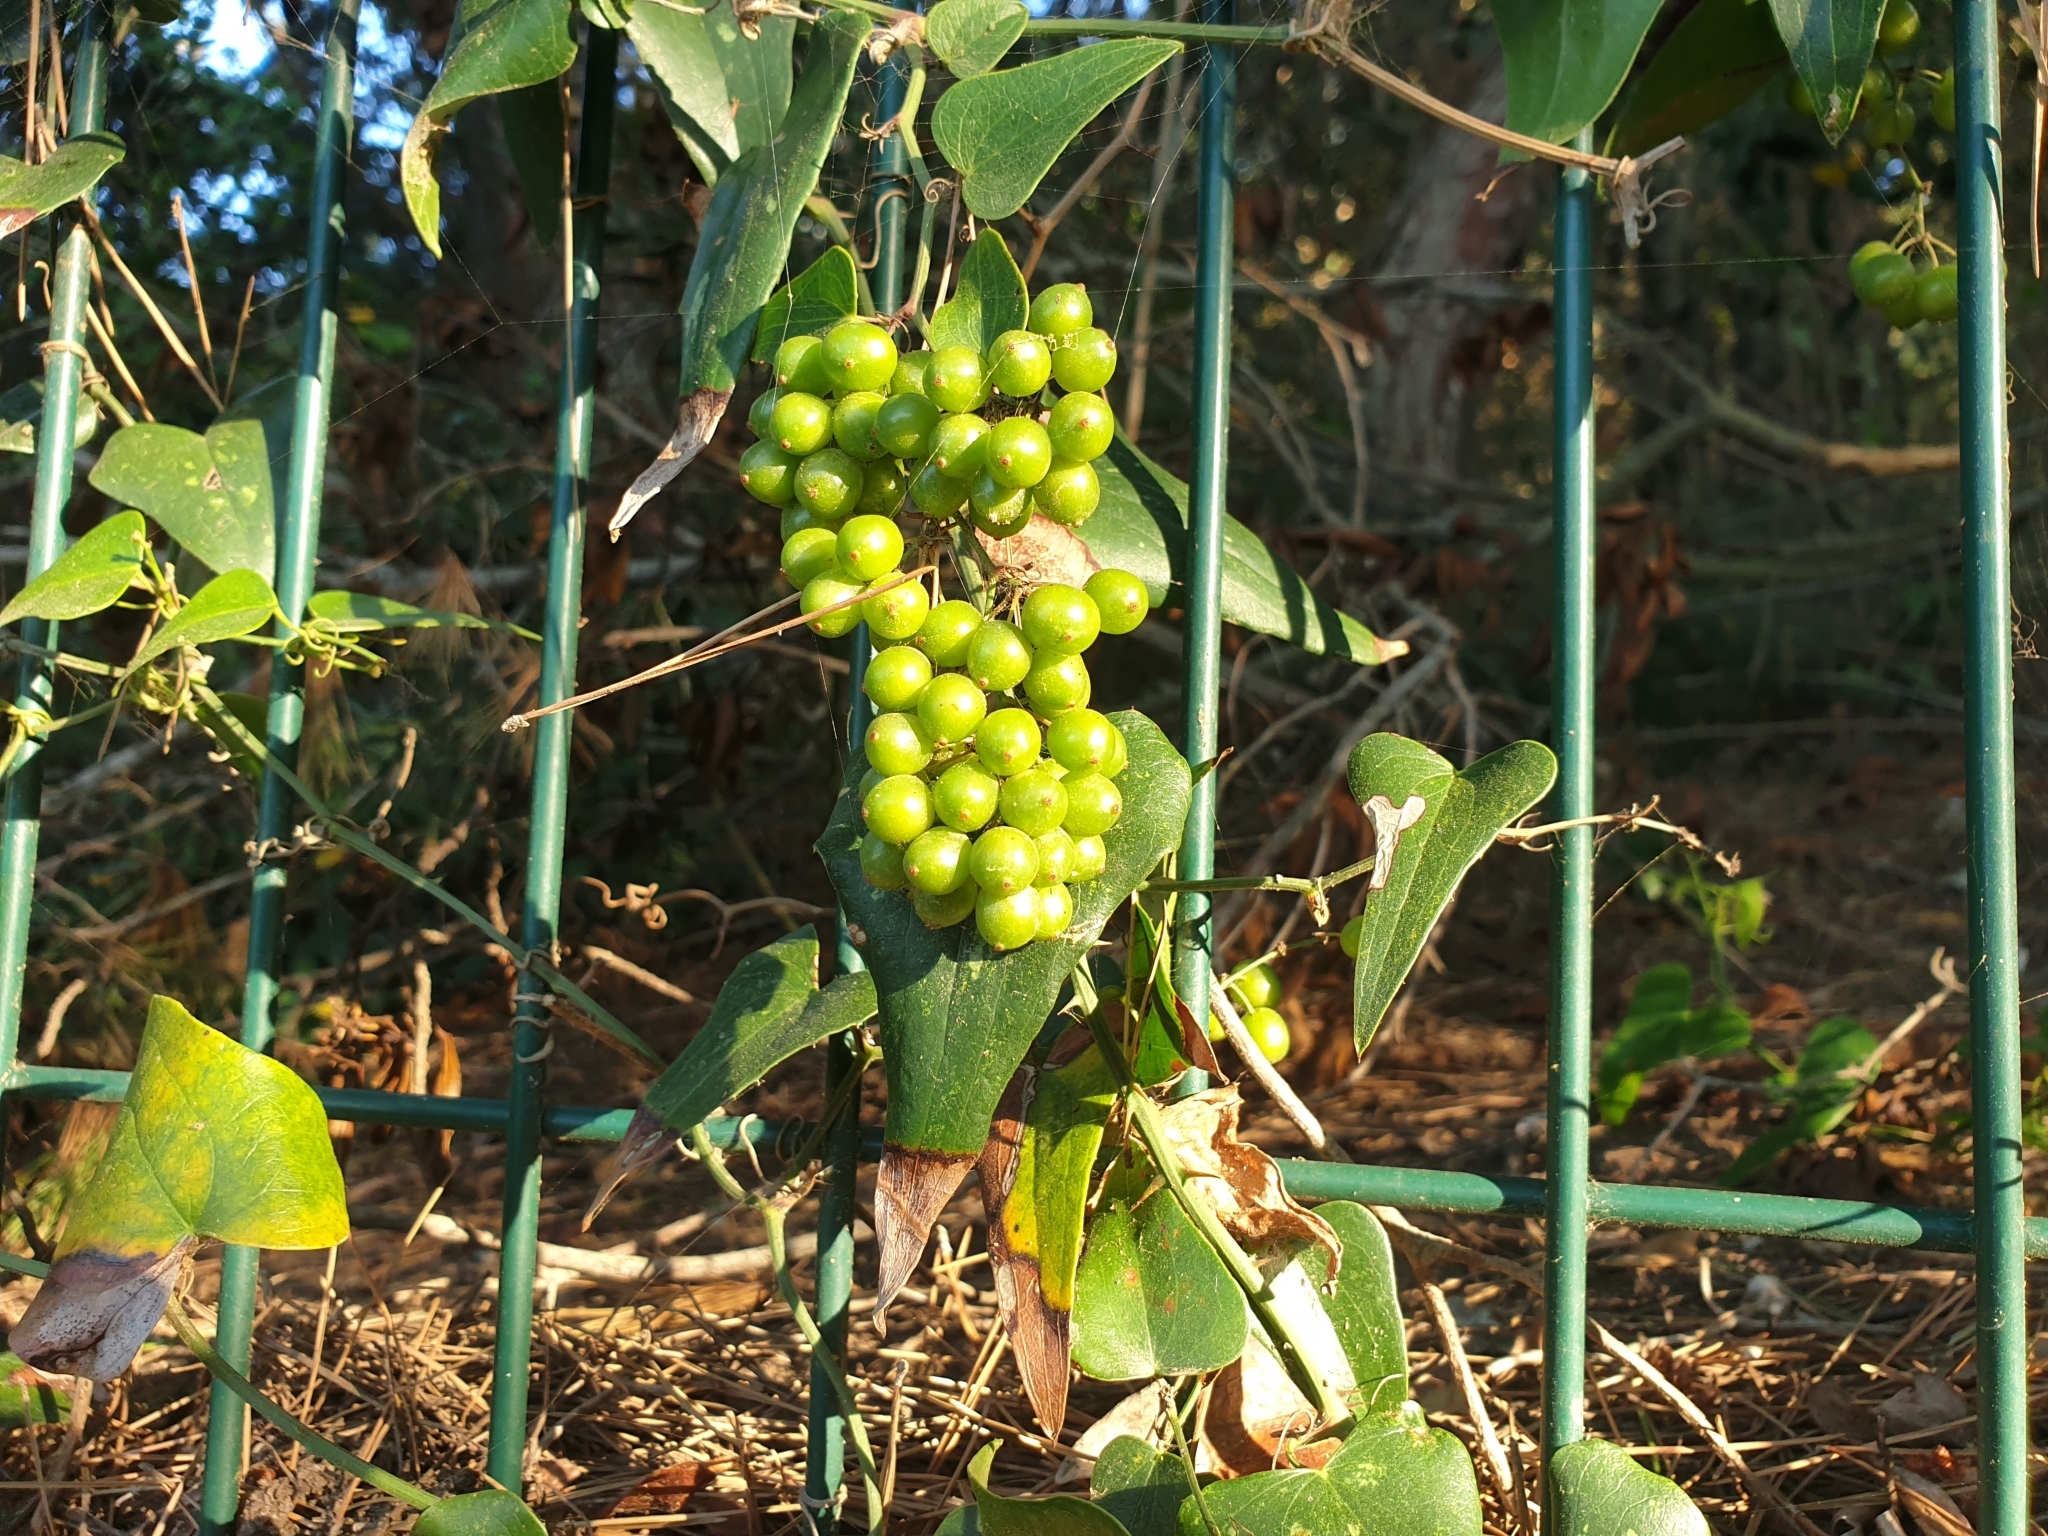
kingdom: Plantae
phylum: Tracheophyta
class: Liliopsida
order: Liliales
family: Smilacaceae
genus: Smilax
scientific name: Smilax aspera
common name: Common smilax
